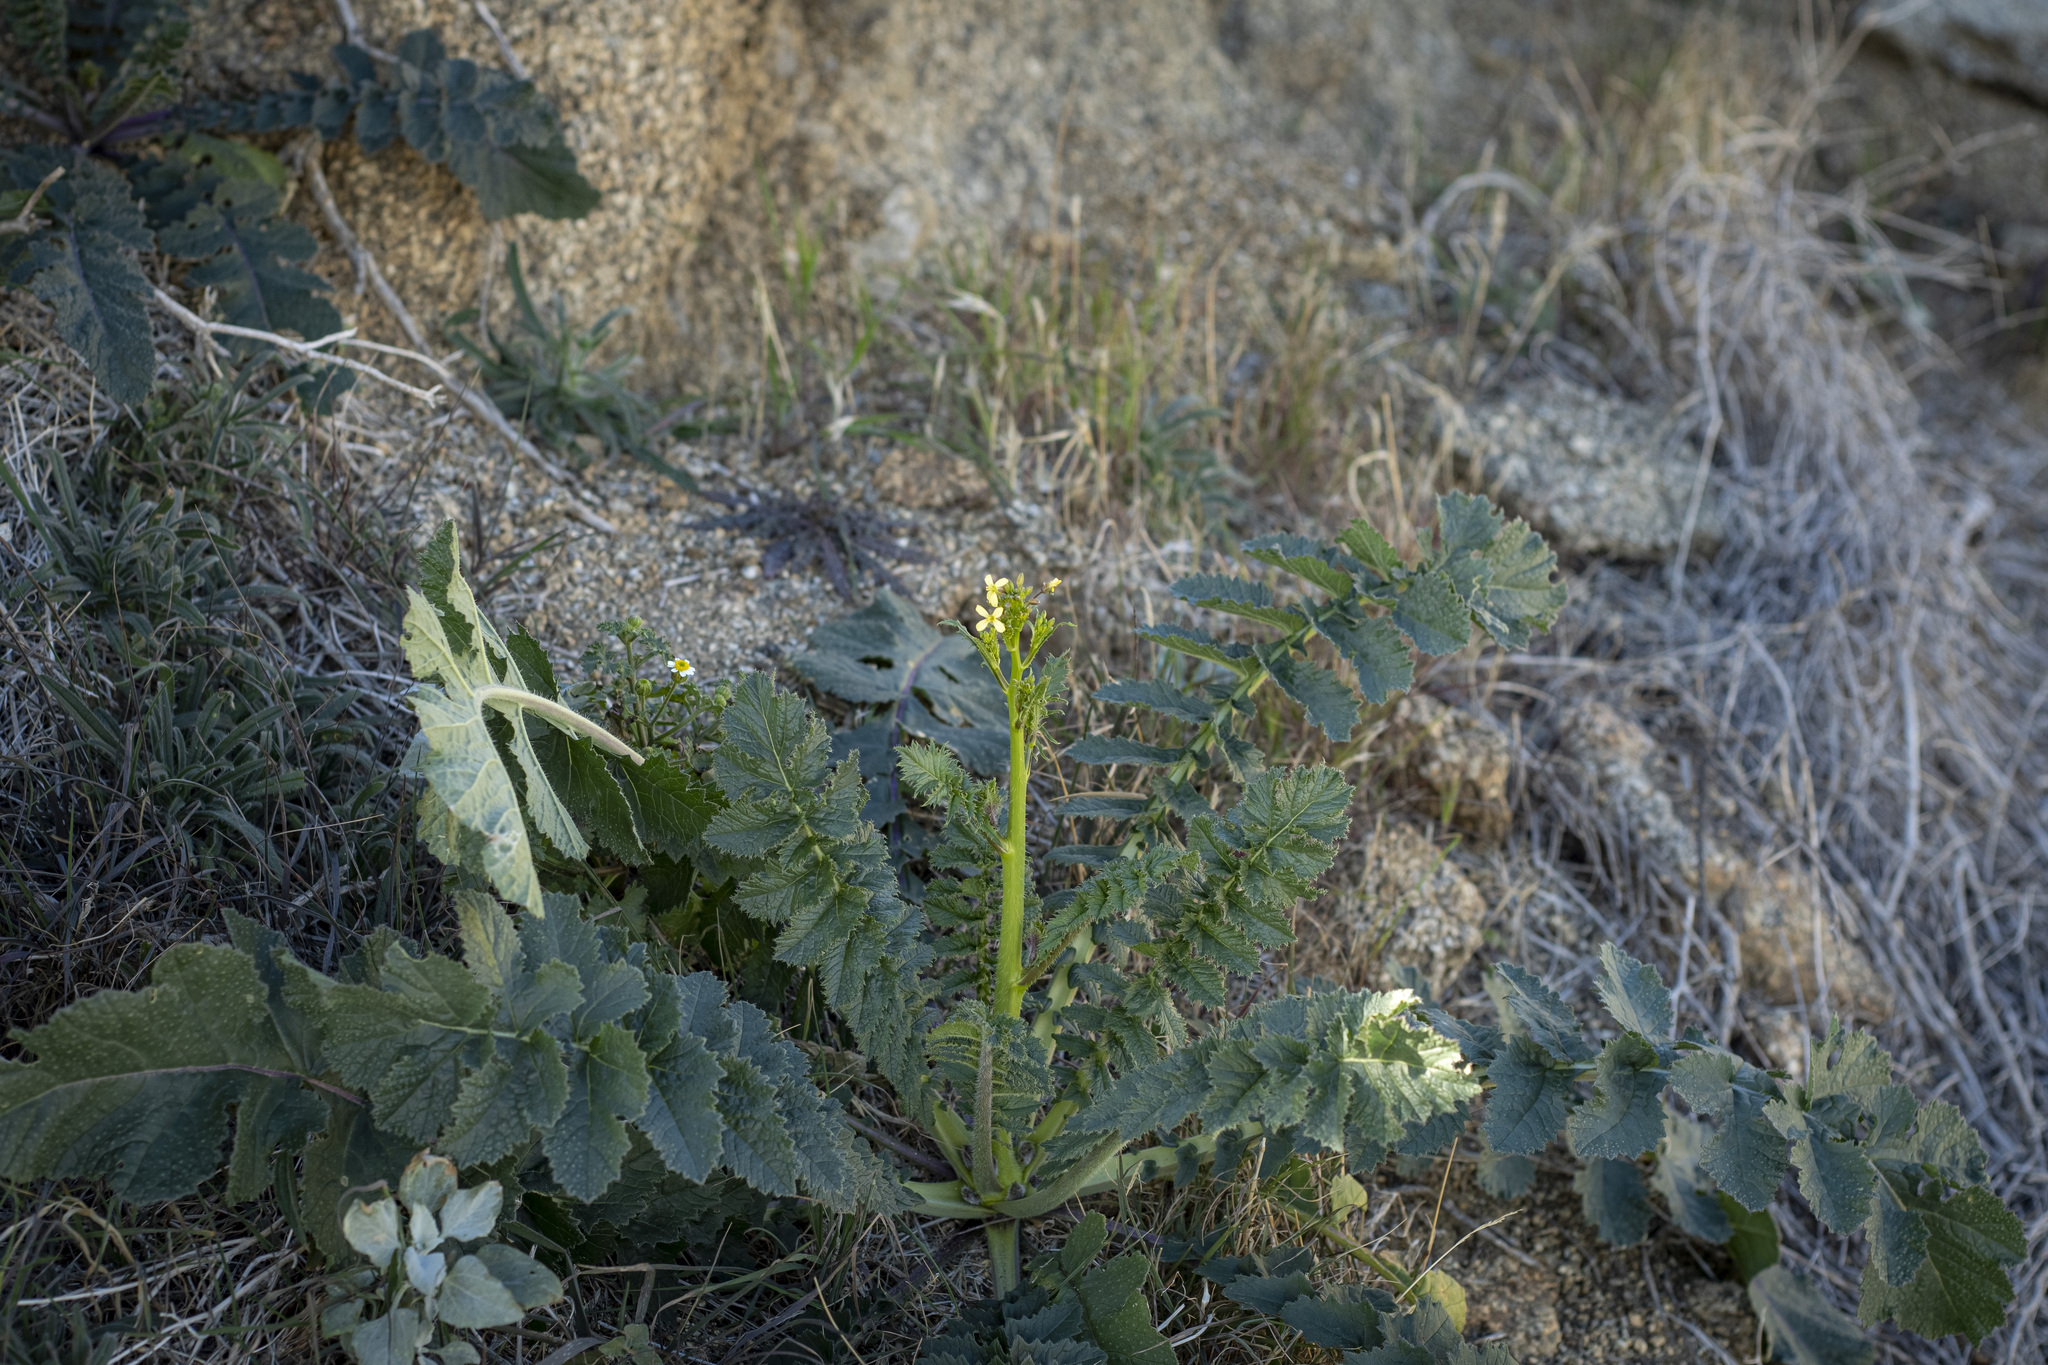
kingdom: Plantae
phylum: Tracheophyta
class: Magnoliopsida
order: Brassicales
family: Brassicaceae
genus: Brassica
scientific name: Brassica tournefortii
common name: Pale cabbage
